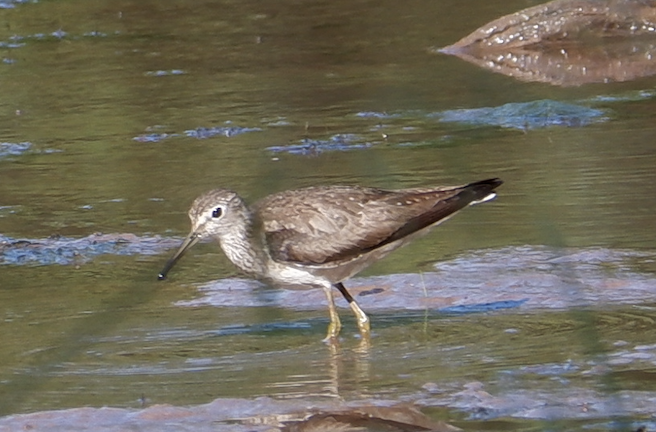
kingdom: Animalia
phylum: Chordata
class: Aves
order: Charadriiformes
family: Scolopacidae
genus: Tringa
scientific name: Tringa solitaria
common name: Solitary sandpiper
